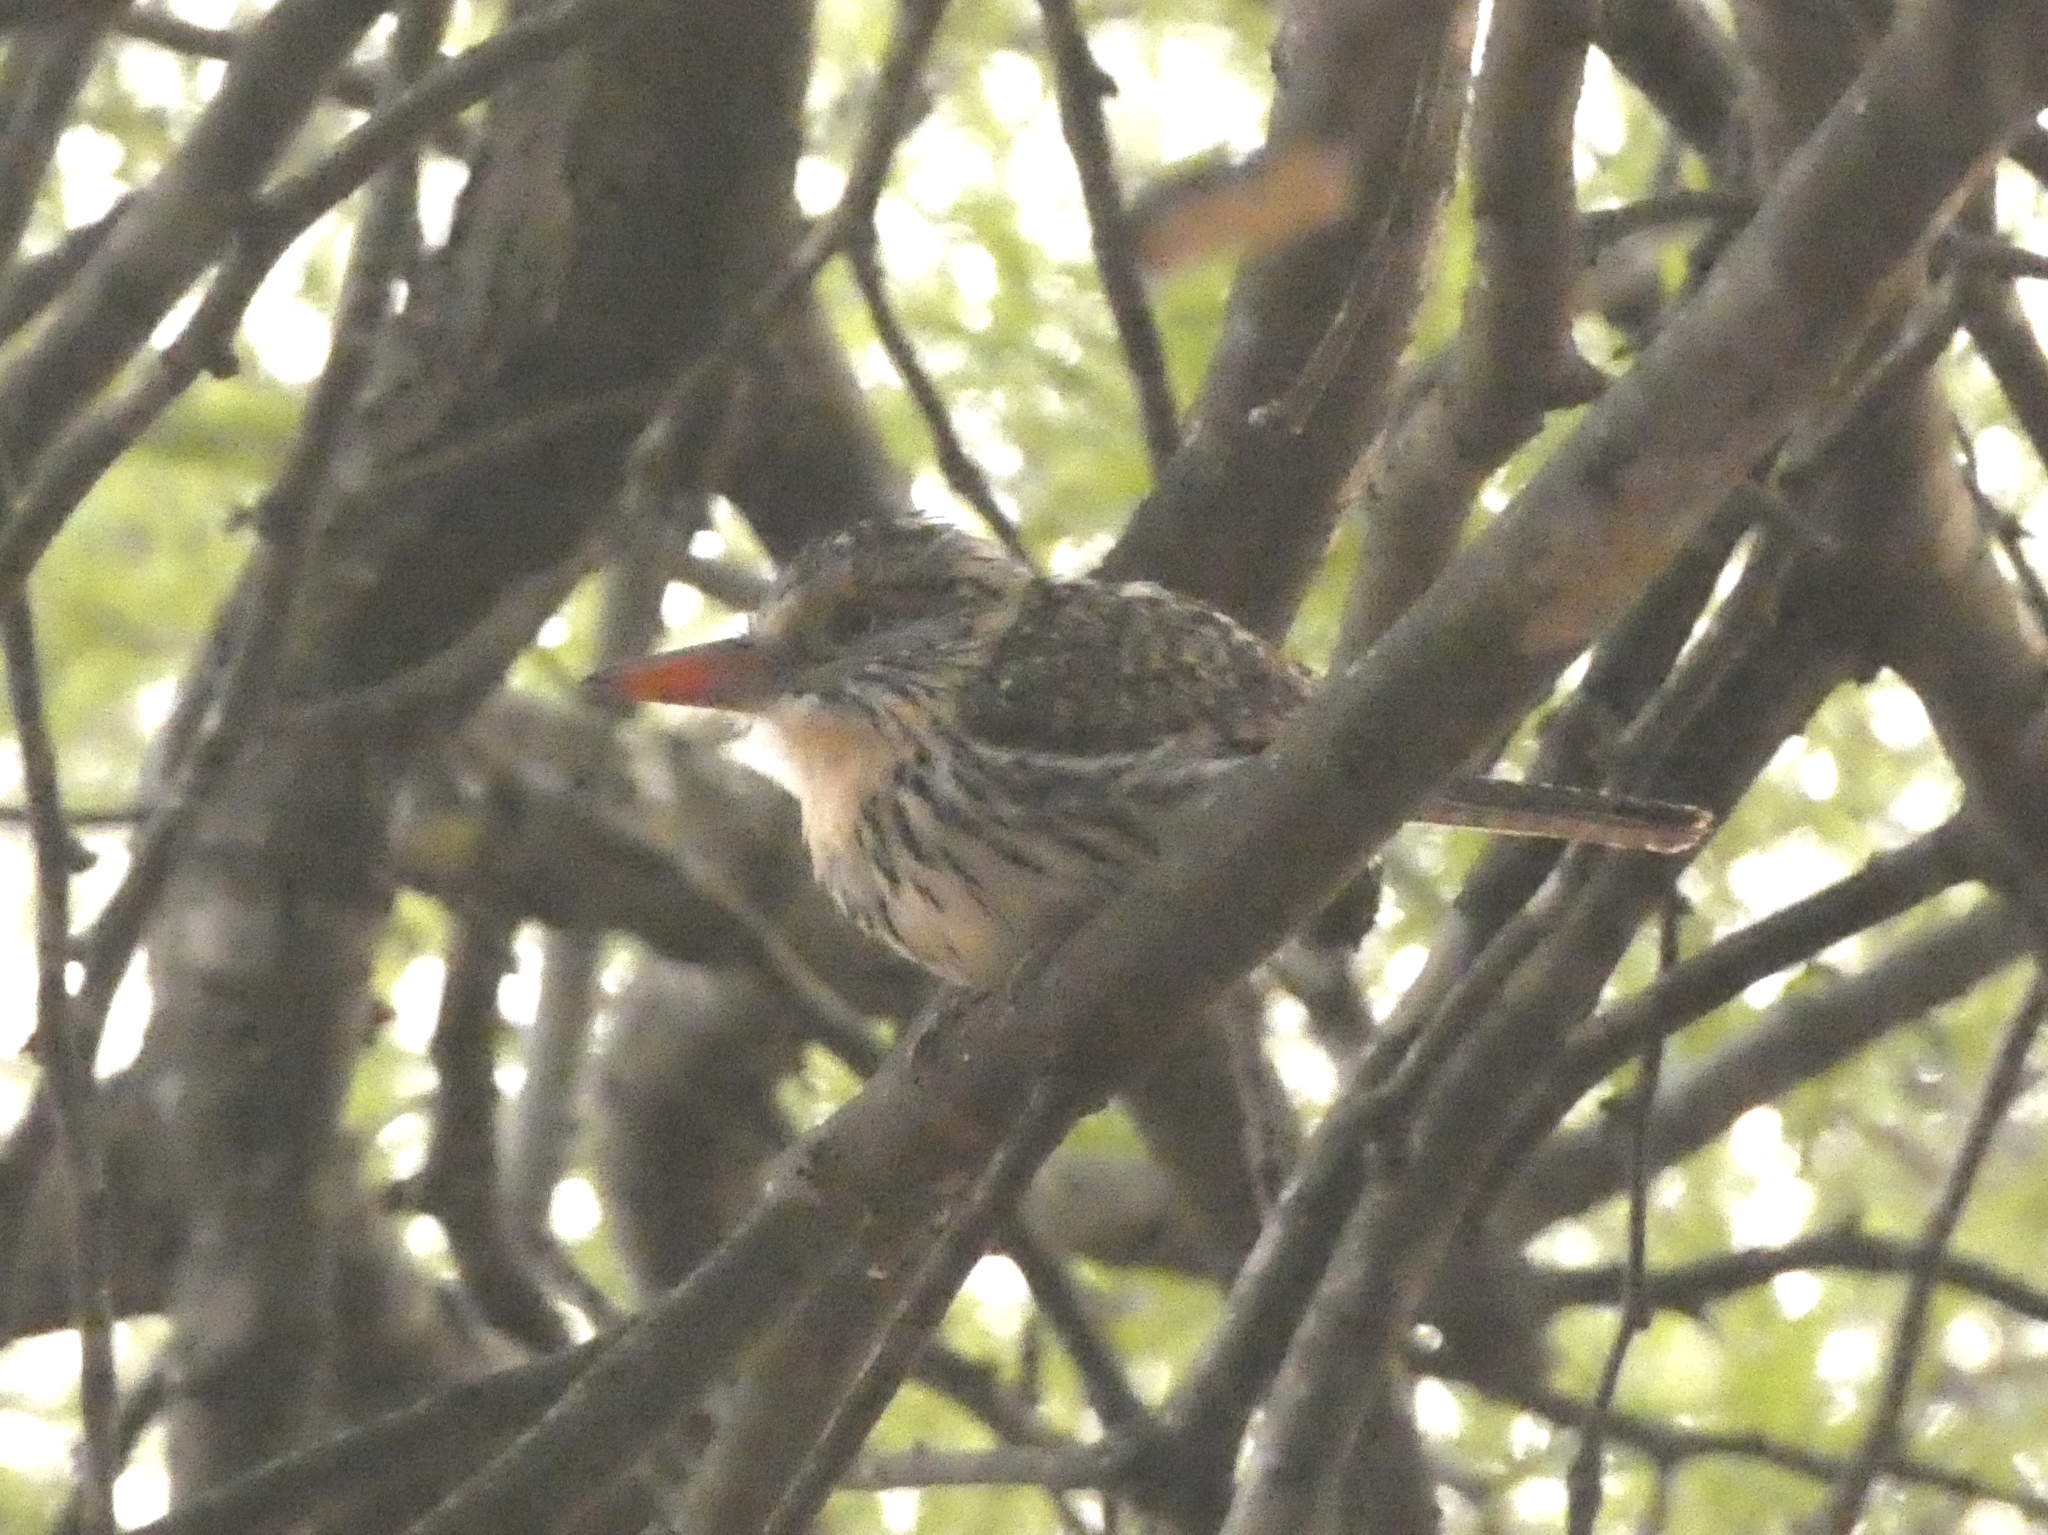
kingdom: Animalia
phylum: Chordata
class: Aves
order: Piciformes
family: Bucconidae
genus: Nystalus
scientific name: Nystalus maculatus
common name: Caatinga puffbird
